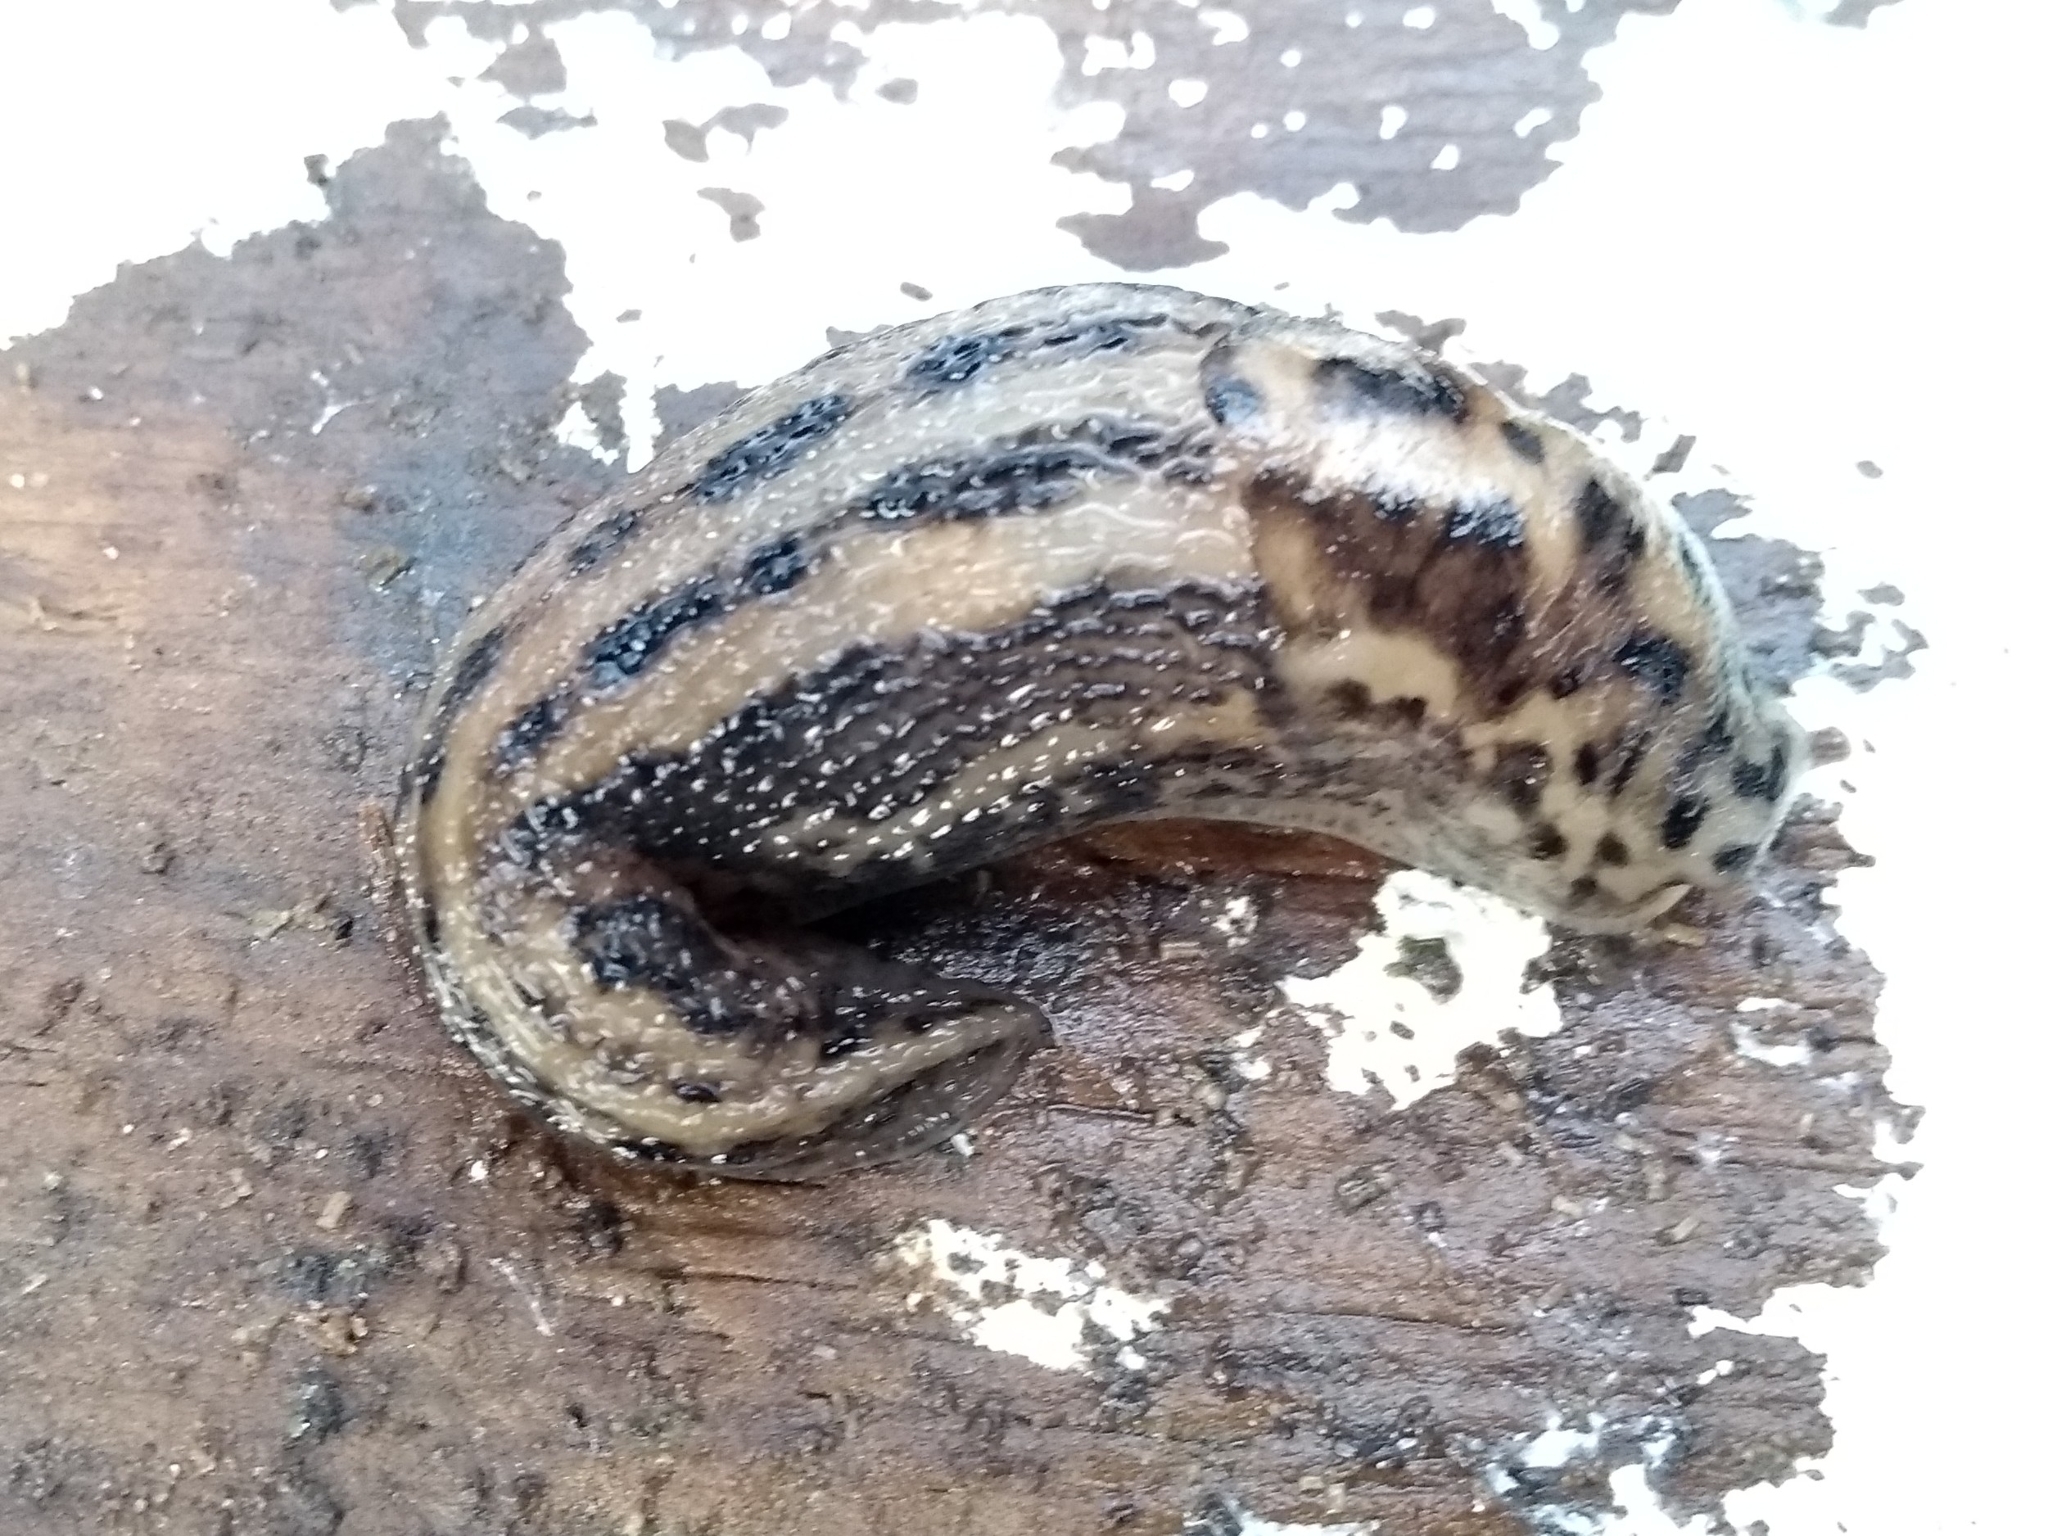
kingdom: Animalia
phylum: Mollusca
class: Gastropoda
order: Stylommatophora
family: Limacidae
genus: Limax
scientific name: Limax maximus
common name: Great grey slug
